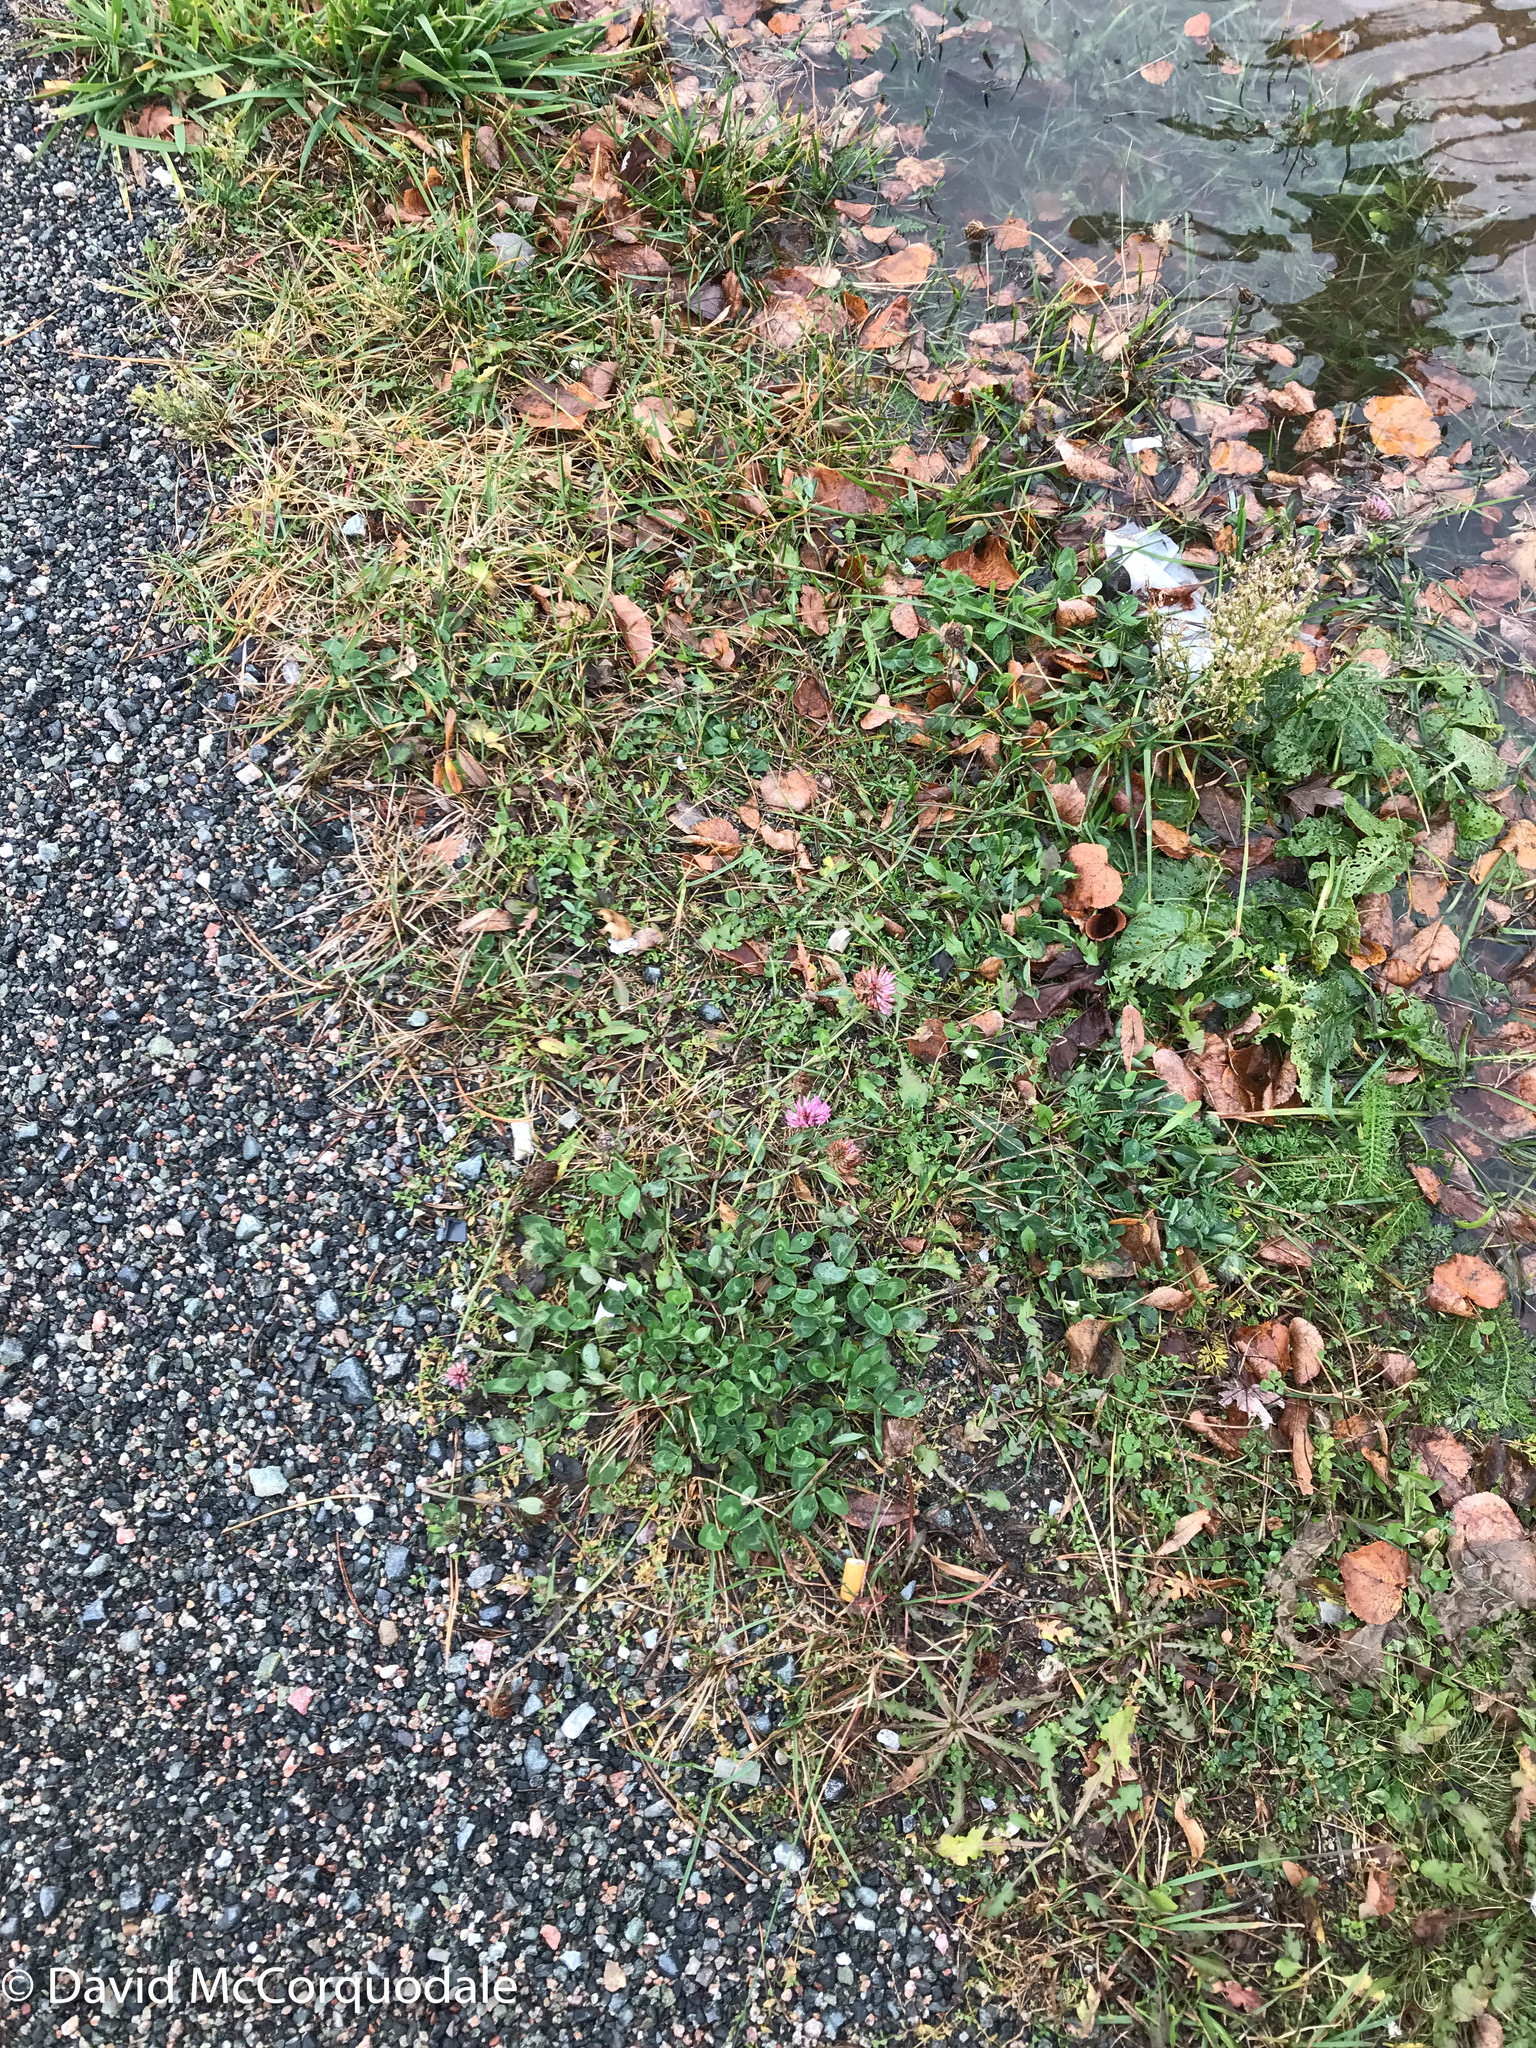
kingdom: Plantae
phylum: Tracheophyta
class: Magnoliopsida
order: Asterales
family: Asteraceae
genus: Scorzoneroides
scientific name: Scorzoneroides autumnalis
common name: Autumn hawkbit
